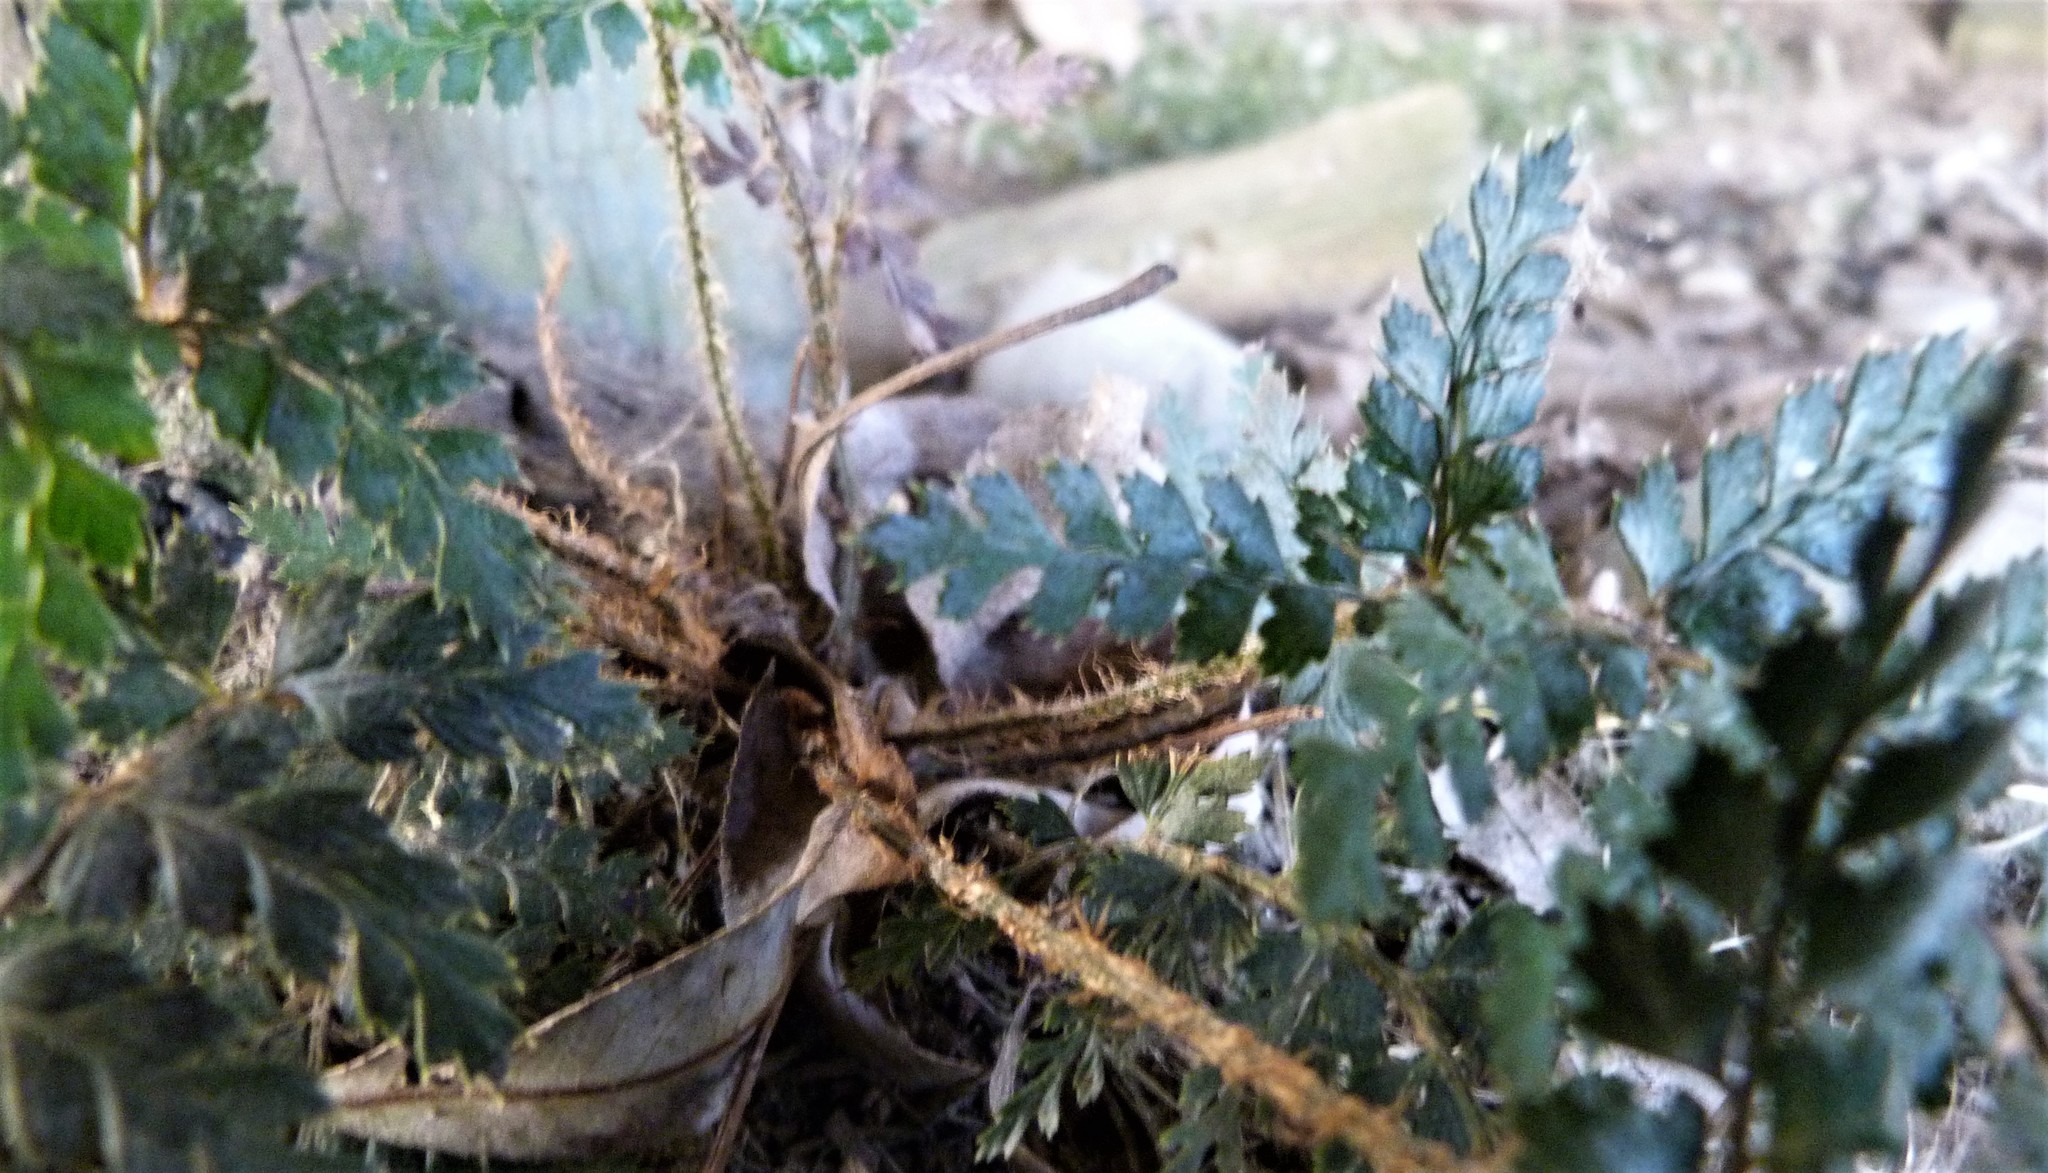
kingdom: Plantae
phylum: Tracheophyta
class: Polypodiopsida
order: Polypodiales
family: Dryopteridaceae
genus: Polystichum
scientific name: Polystichum vestitum
